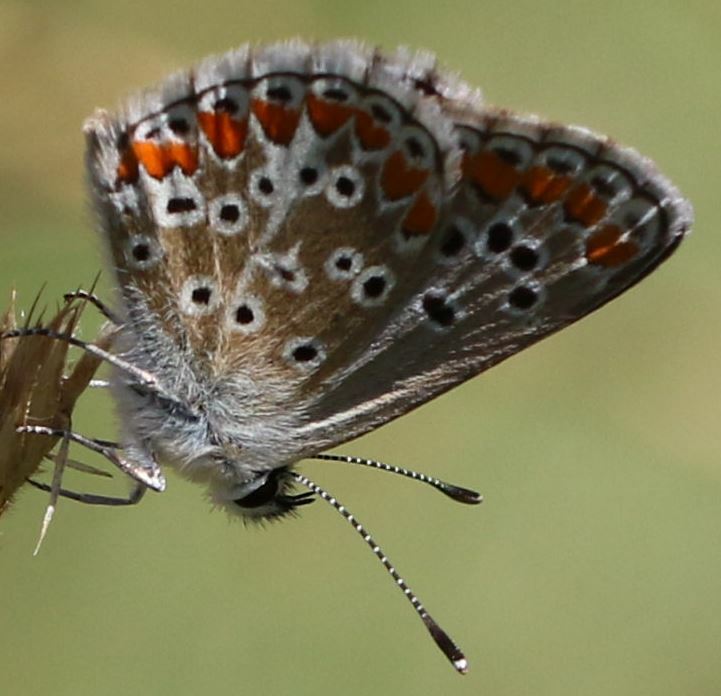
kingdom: Animalia
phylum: Arthropoda
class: Insecta
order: Lepidoptera
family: Lycaenidae
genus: Aricia
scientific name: Aricia agestis
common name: Brown argus
